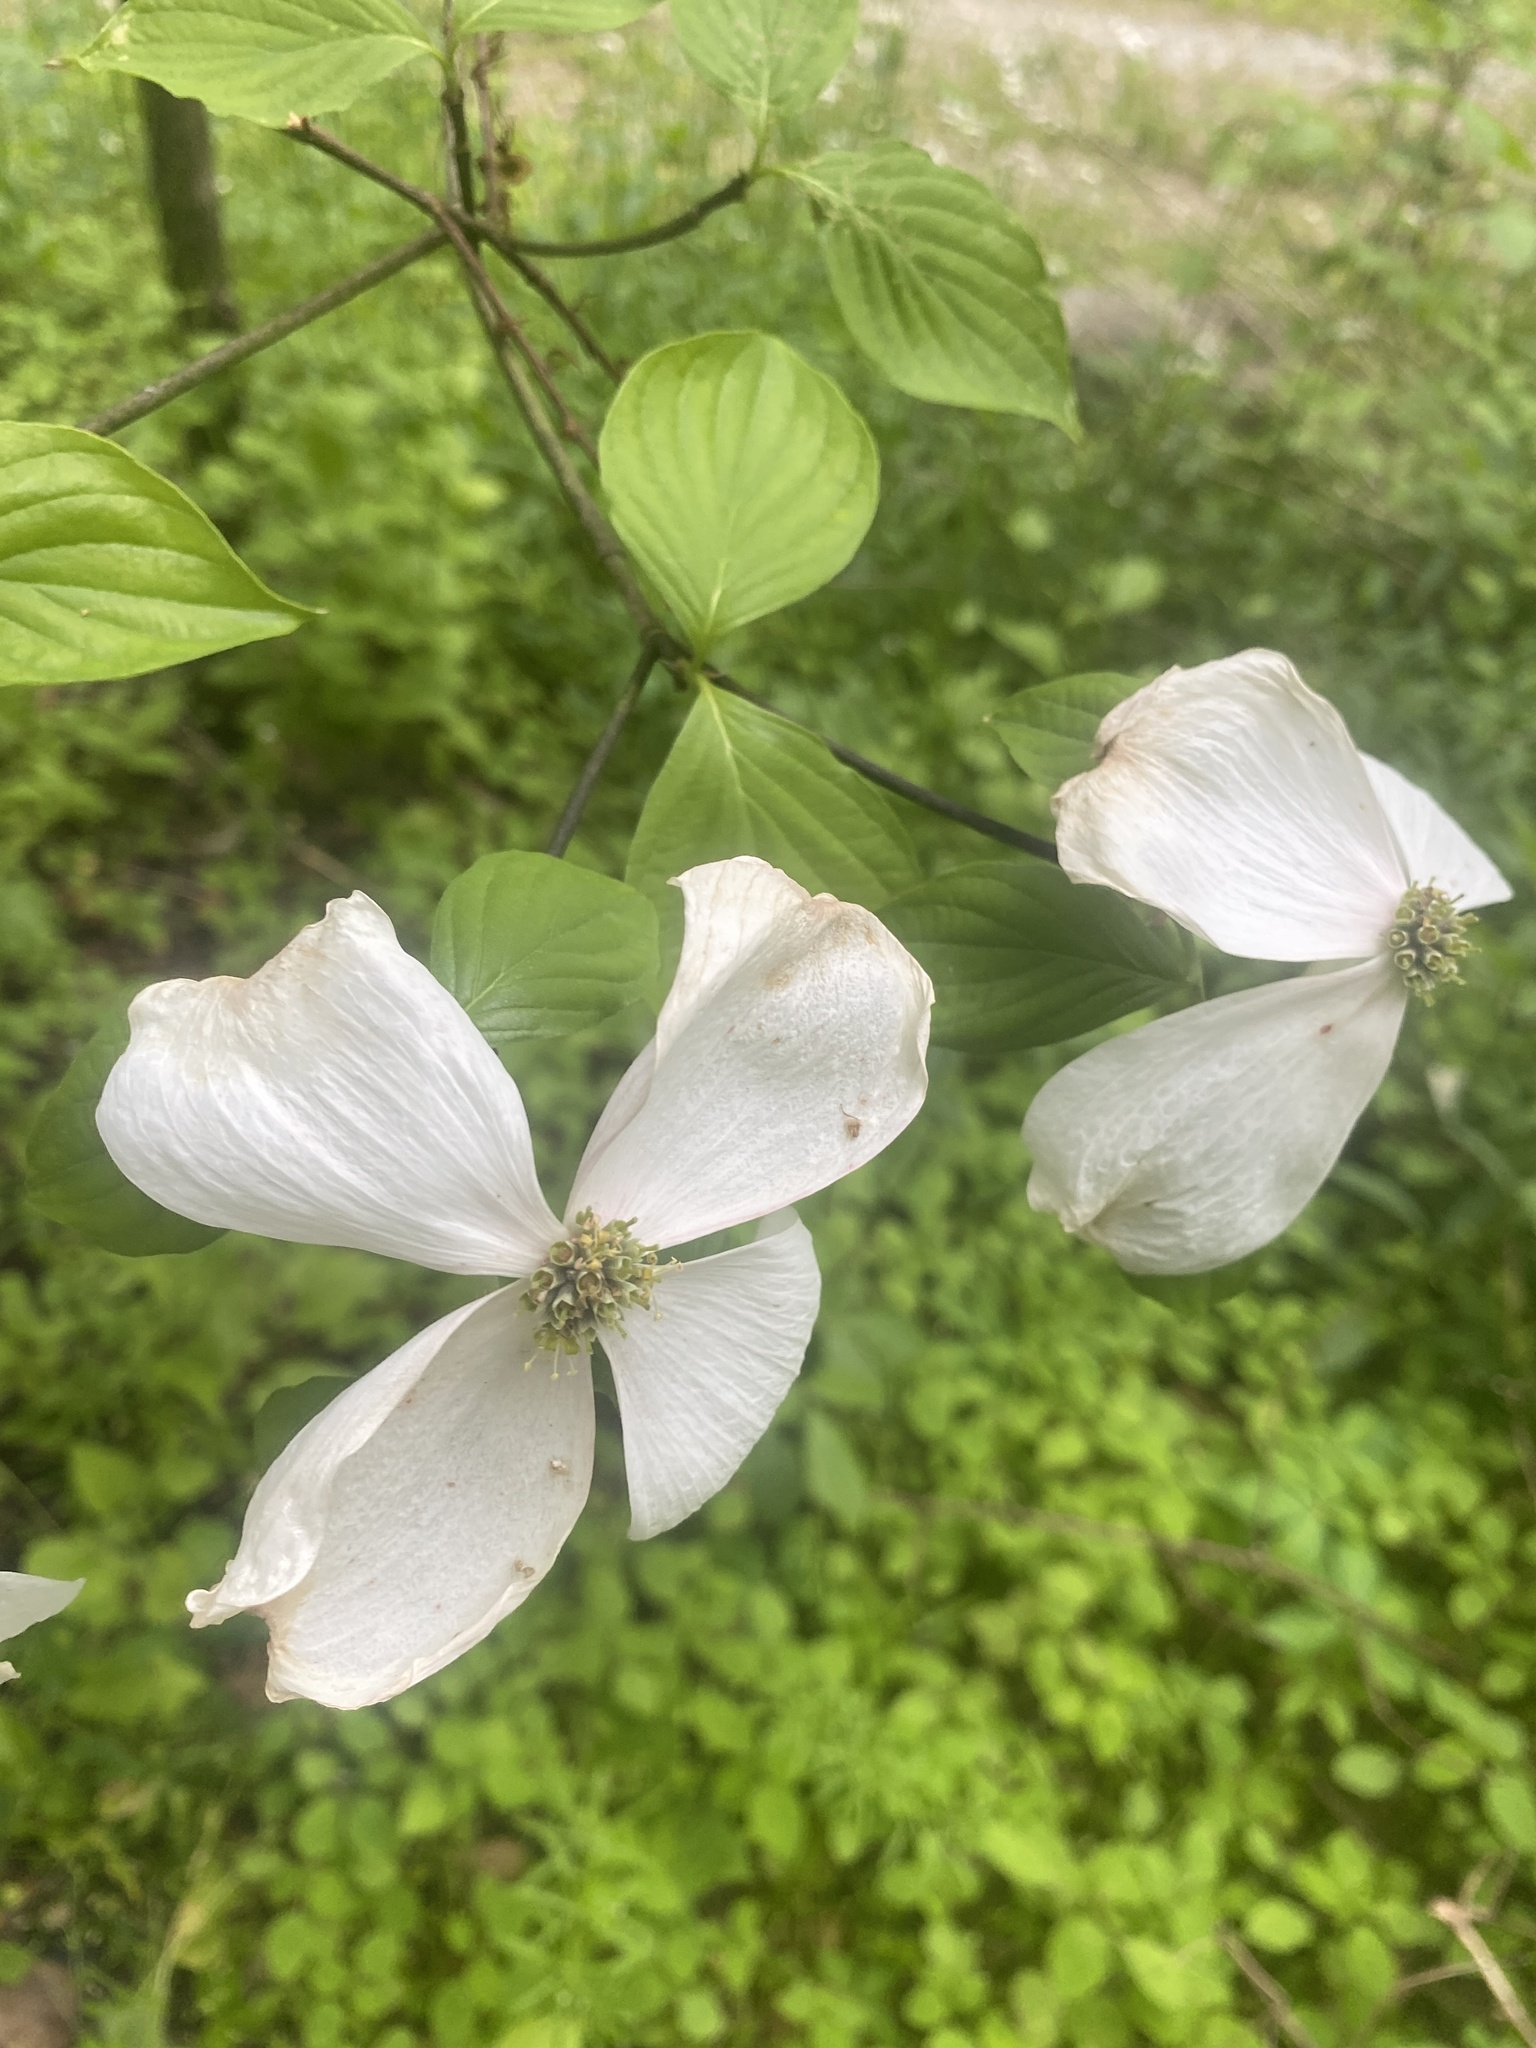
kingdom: Plantae
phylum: Tracheophyta
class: Magnoliopsida
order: Cornales
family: Cornaceae
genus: Cornus
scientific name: Cornus florida
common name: Flowering dogwood
